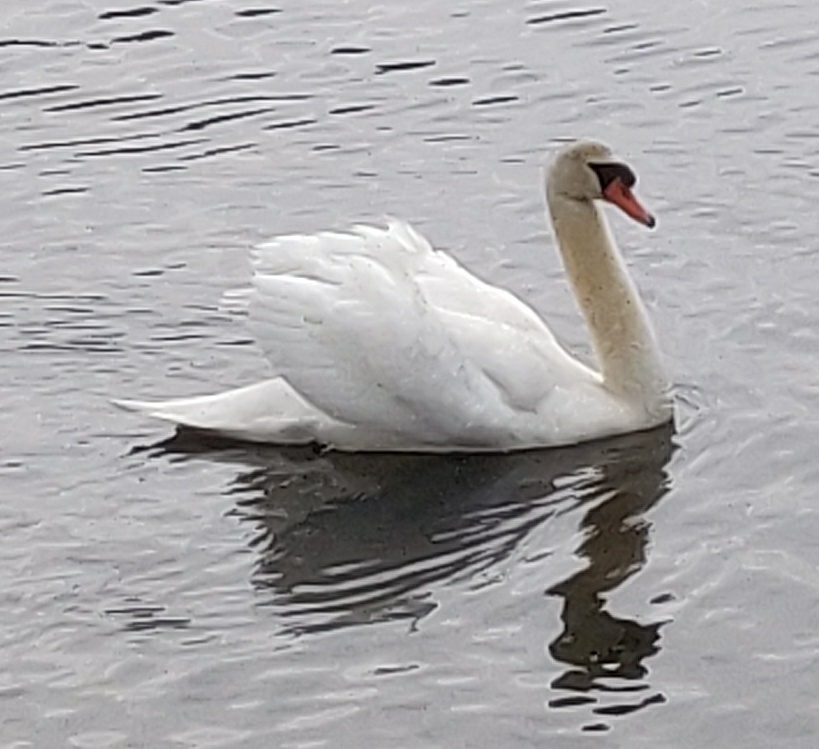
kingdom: Animalia
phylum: Chordata
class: Aves
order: Anseriformes
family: Anatidae
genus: Cygnus
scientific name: Cygnus olor
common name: Mute swan
